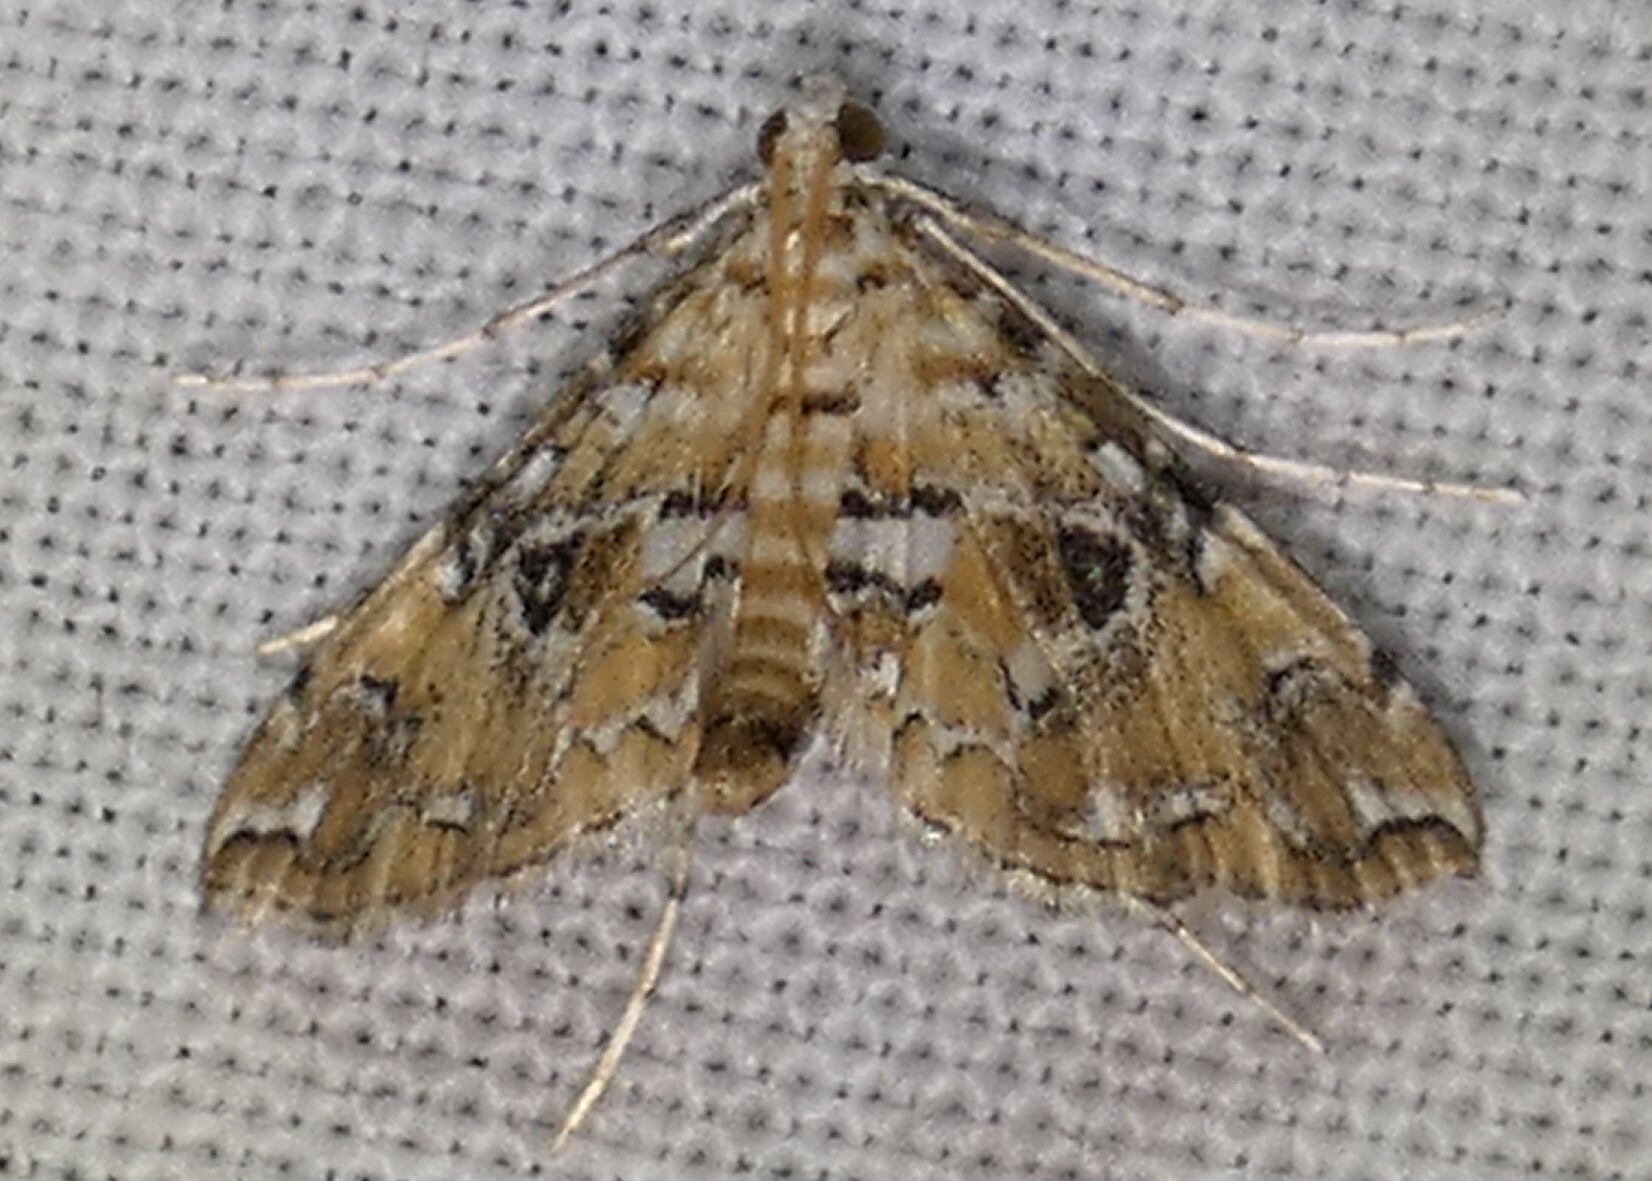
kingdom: Animalia
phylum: Arthropoda
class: Insecta
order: Lepidoptera
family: Crambidae
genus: Elophila
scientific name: Elophila faulalis
